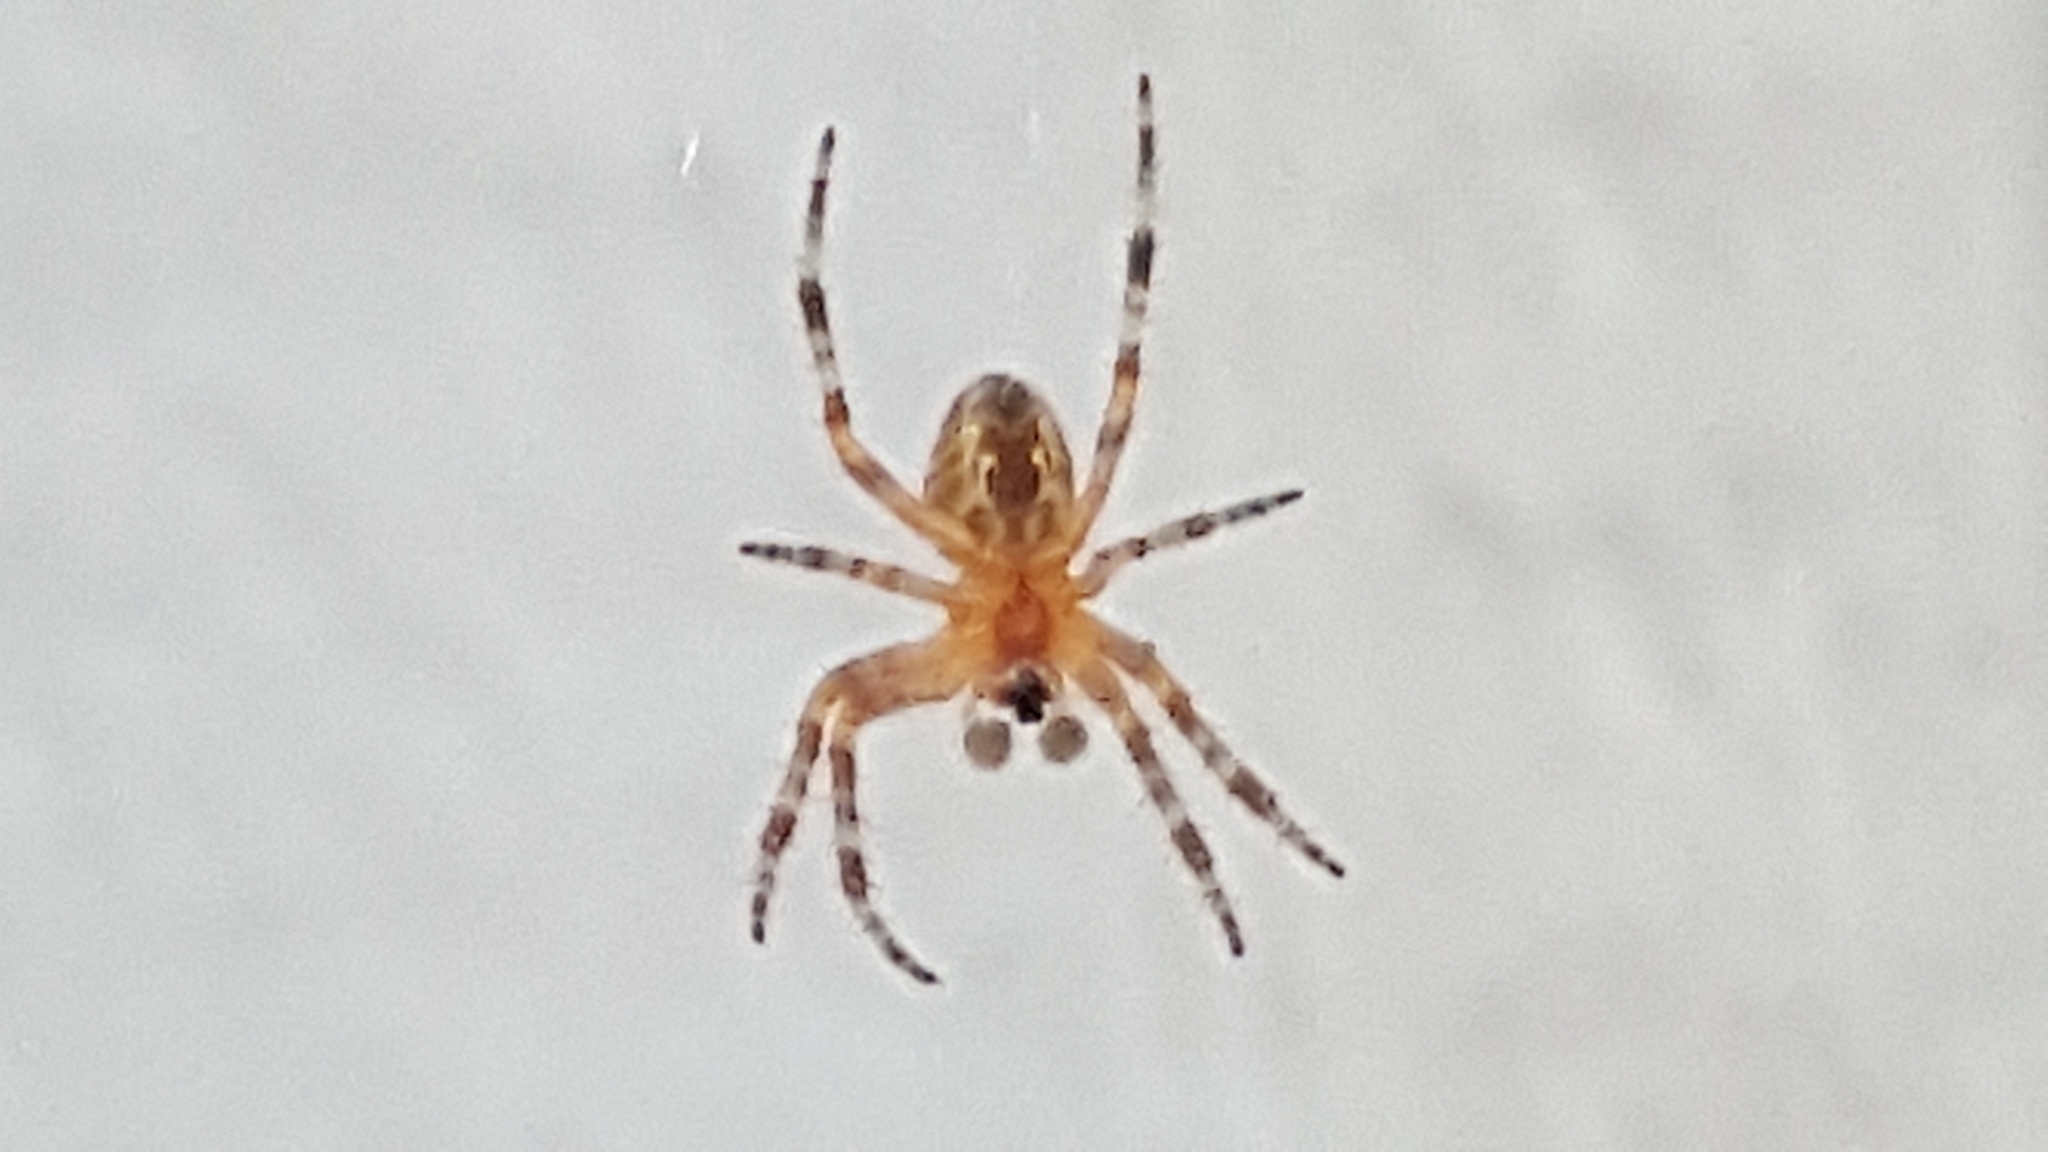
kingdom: Animalia
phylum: Arthropoda
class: Arachnida
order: Araneae
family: Araneidae
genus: Araneus
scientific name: Araneus diadematus
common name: Cross orbweaver
